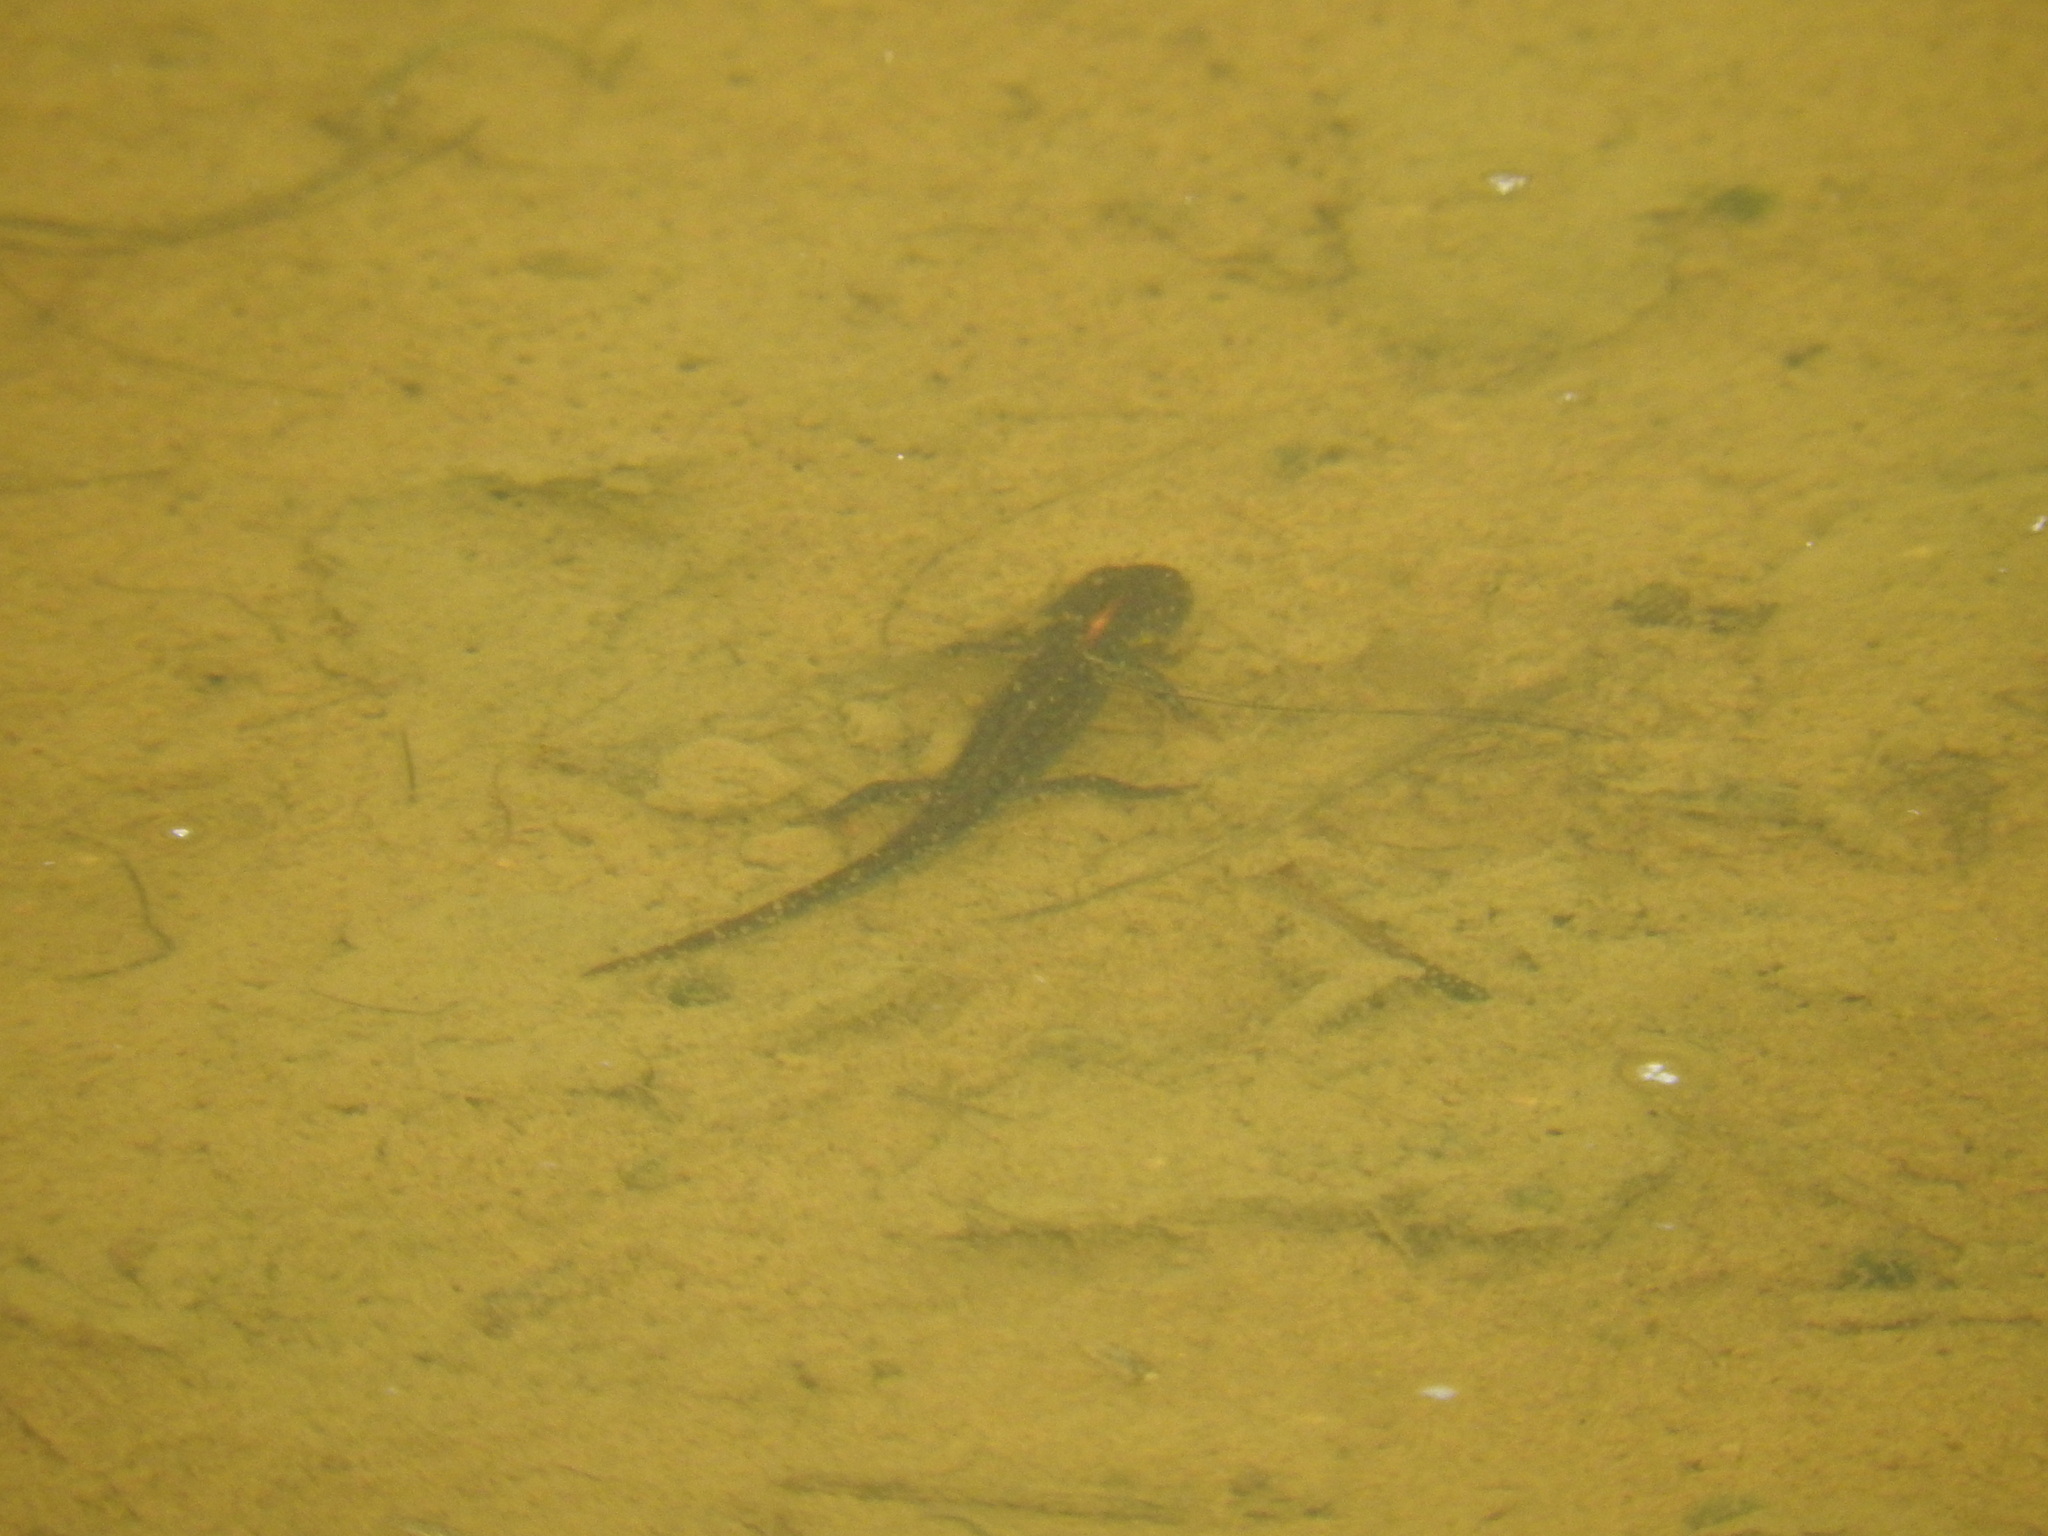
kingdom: Animalia
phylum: Chordata
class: Amphibia
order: Caudata
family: Salamandridae
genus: Ichthyosaura
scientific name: Ichthyosaura alpestris
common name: Alpine newt
